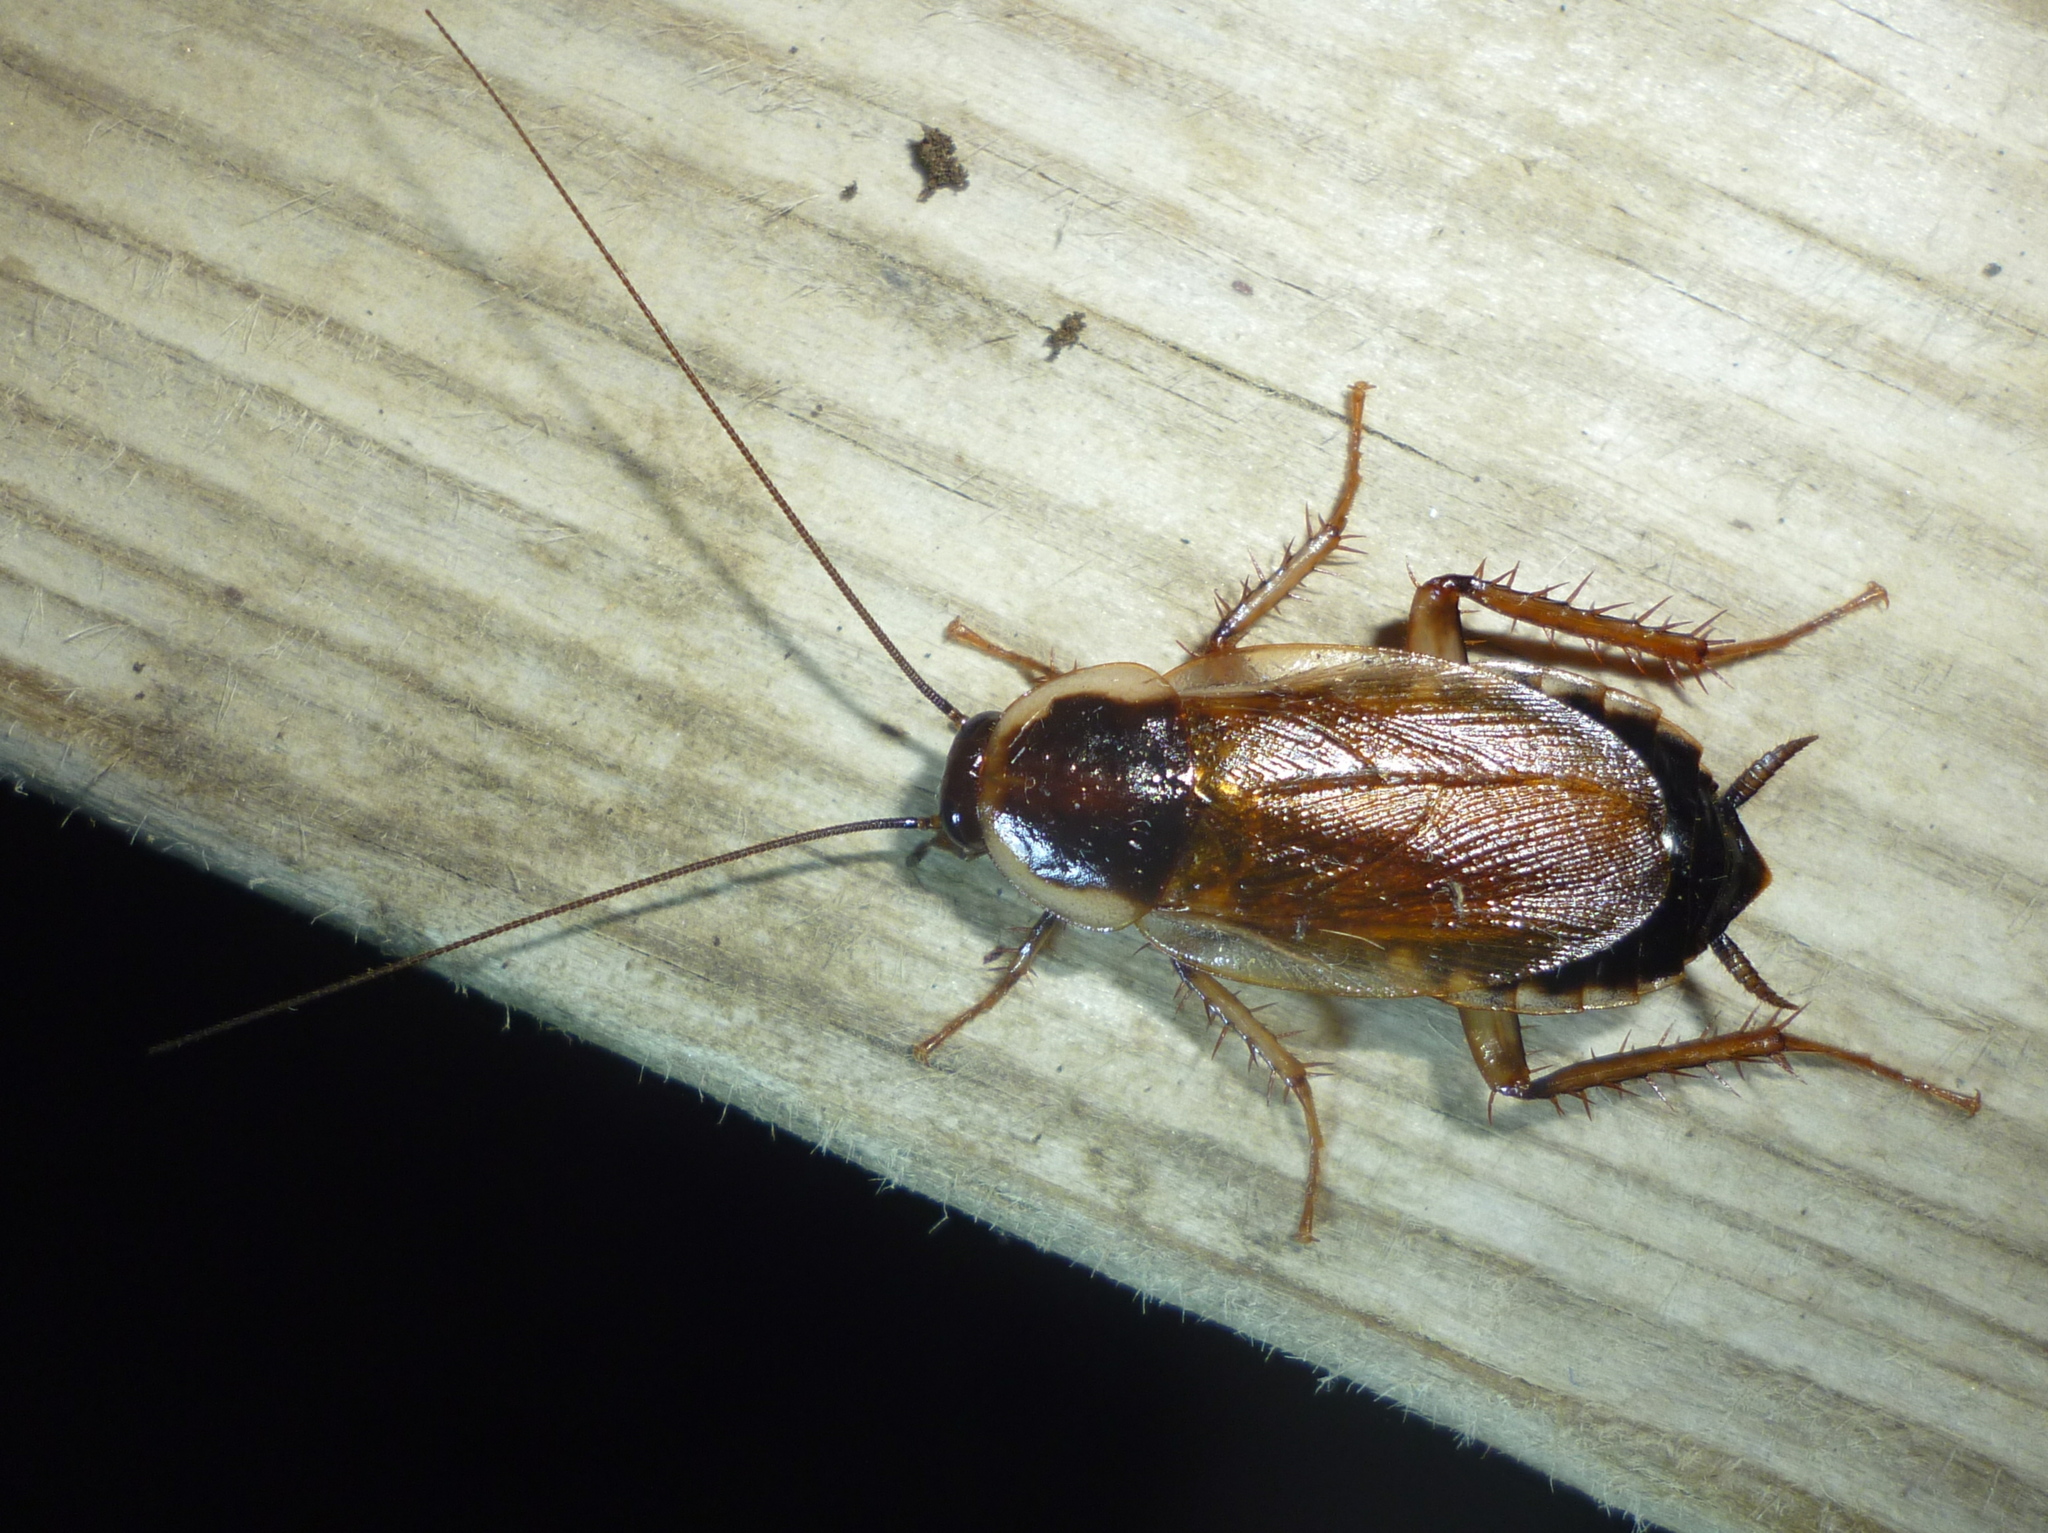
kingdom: Animalia
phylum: Arthropoda
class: Insecta
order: Blattodea
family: Ectobiidae
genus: Parcoblatta
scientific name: Parcoblatta pennsylvanica
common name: Pennsylvanian wood cockroach
